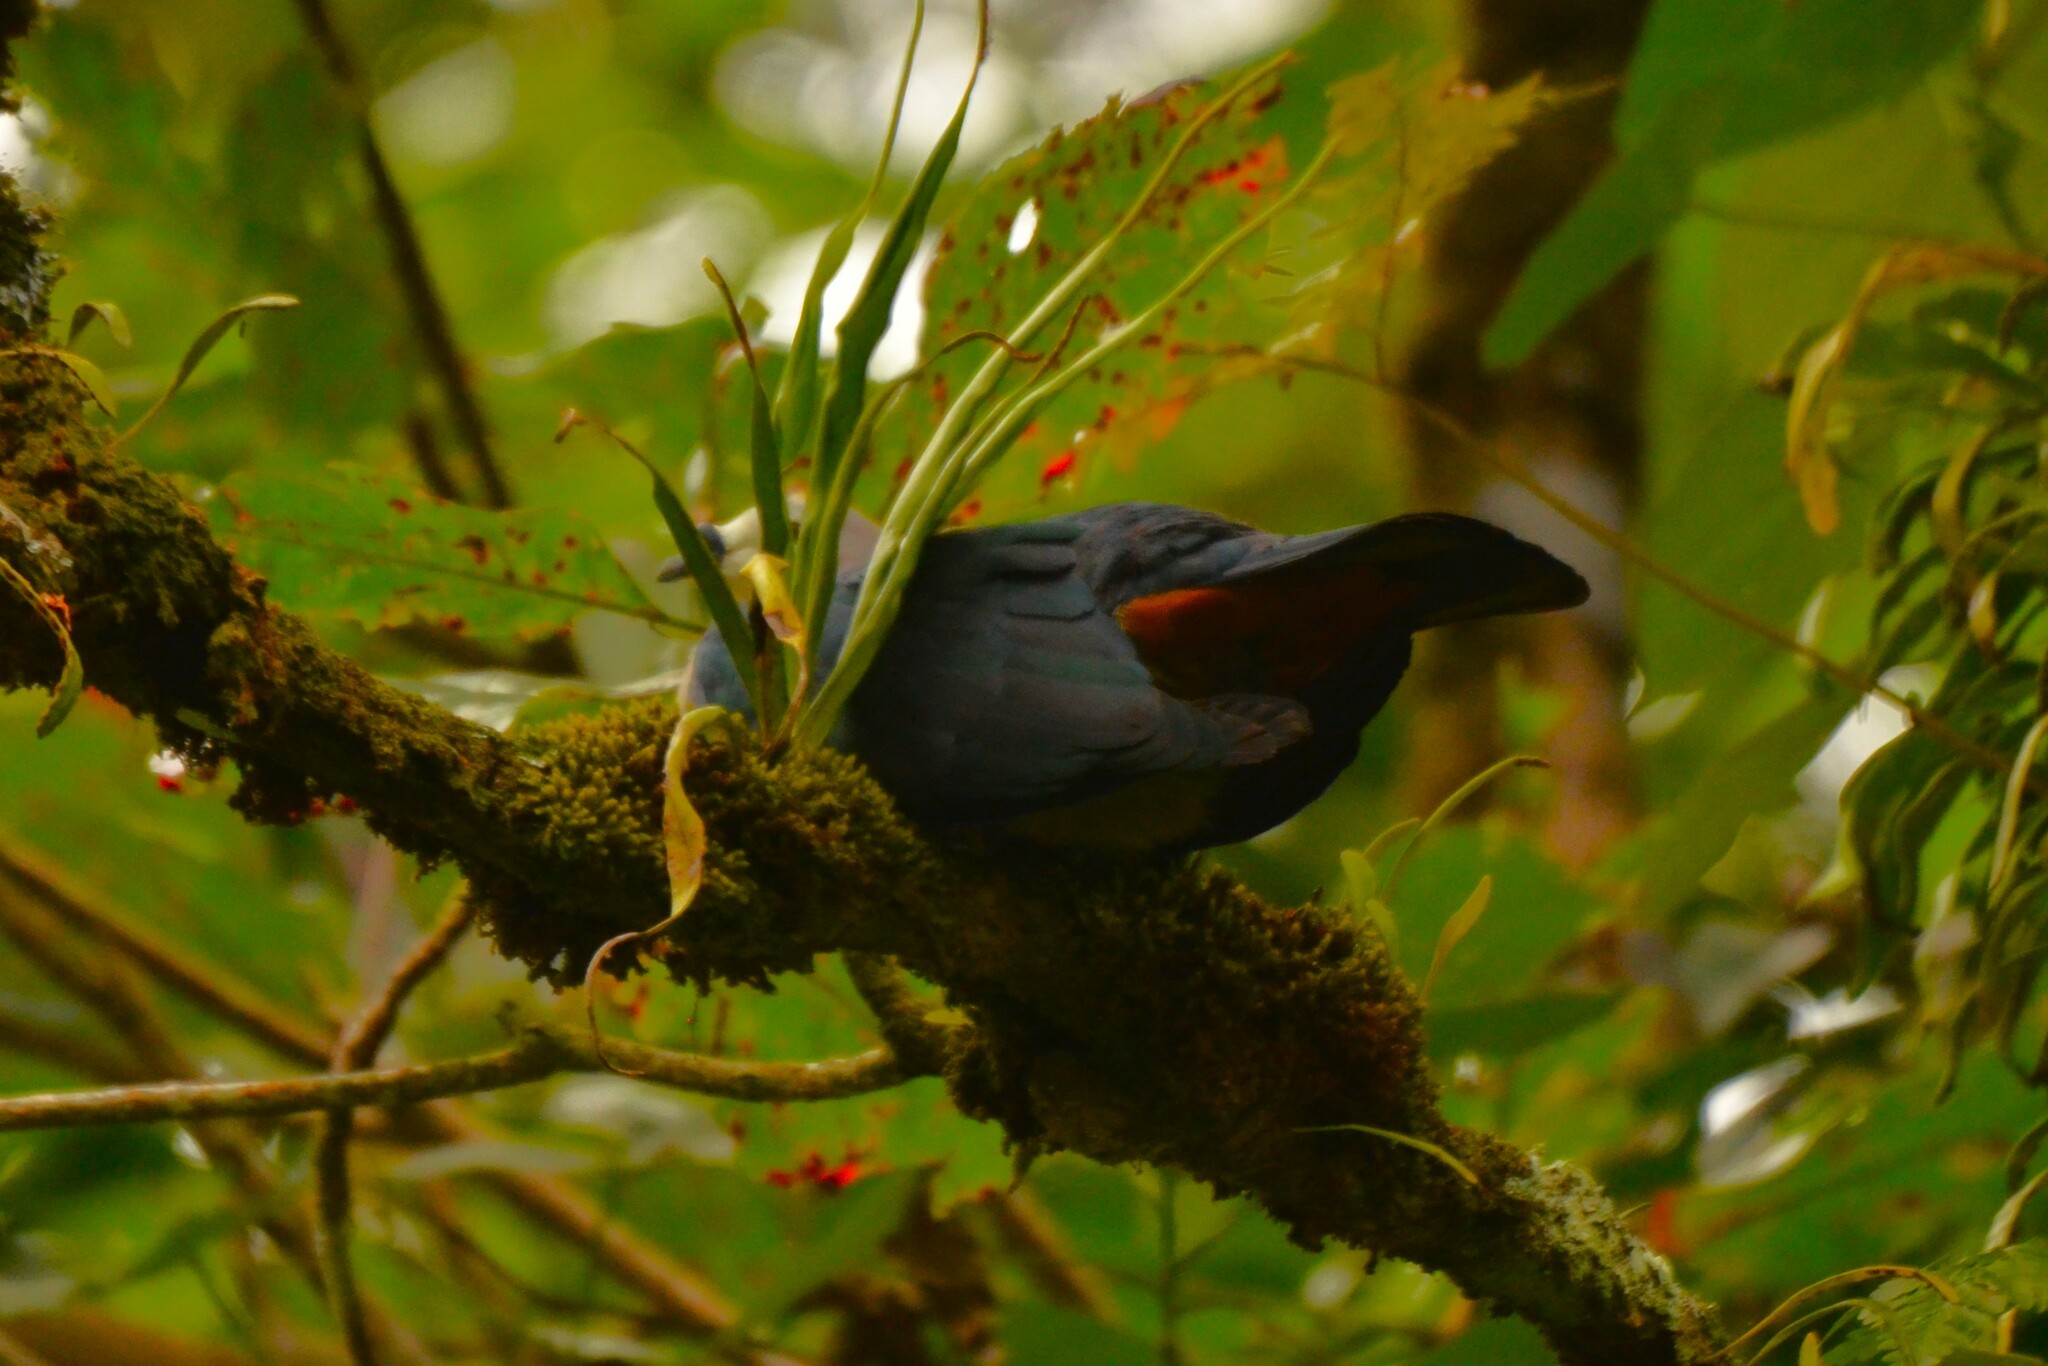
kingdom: Animalia
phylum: Chordata
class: Aves
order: Columbiformes
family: Columbidae
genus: Ducula
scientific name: Ducula pacifica
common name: Pacific imperial-pigeon
